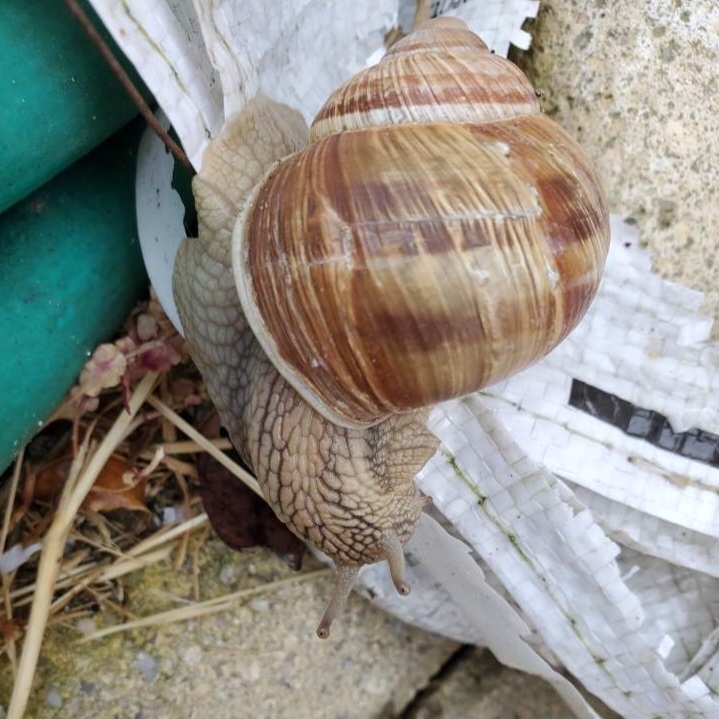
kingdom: Animalia
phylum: Mollusca
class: Gastropoda
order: Stylommatophora
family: Helicidae
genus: Helix
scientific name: Helix pomatia
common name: Roman snail
